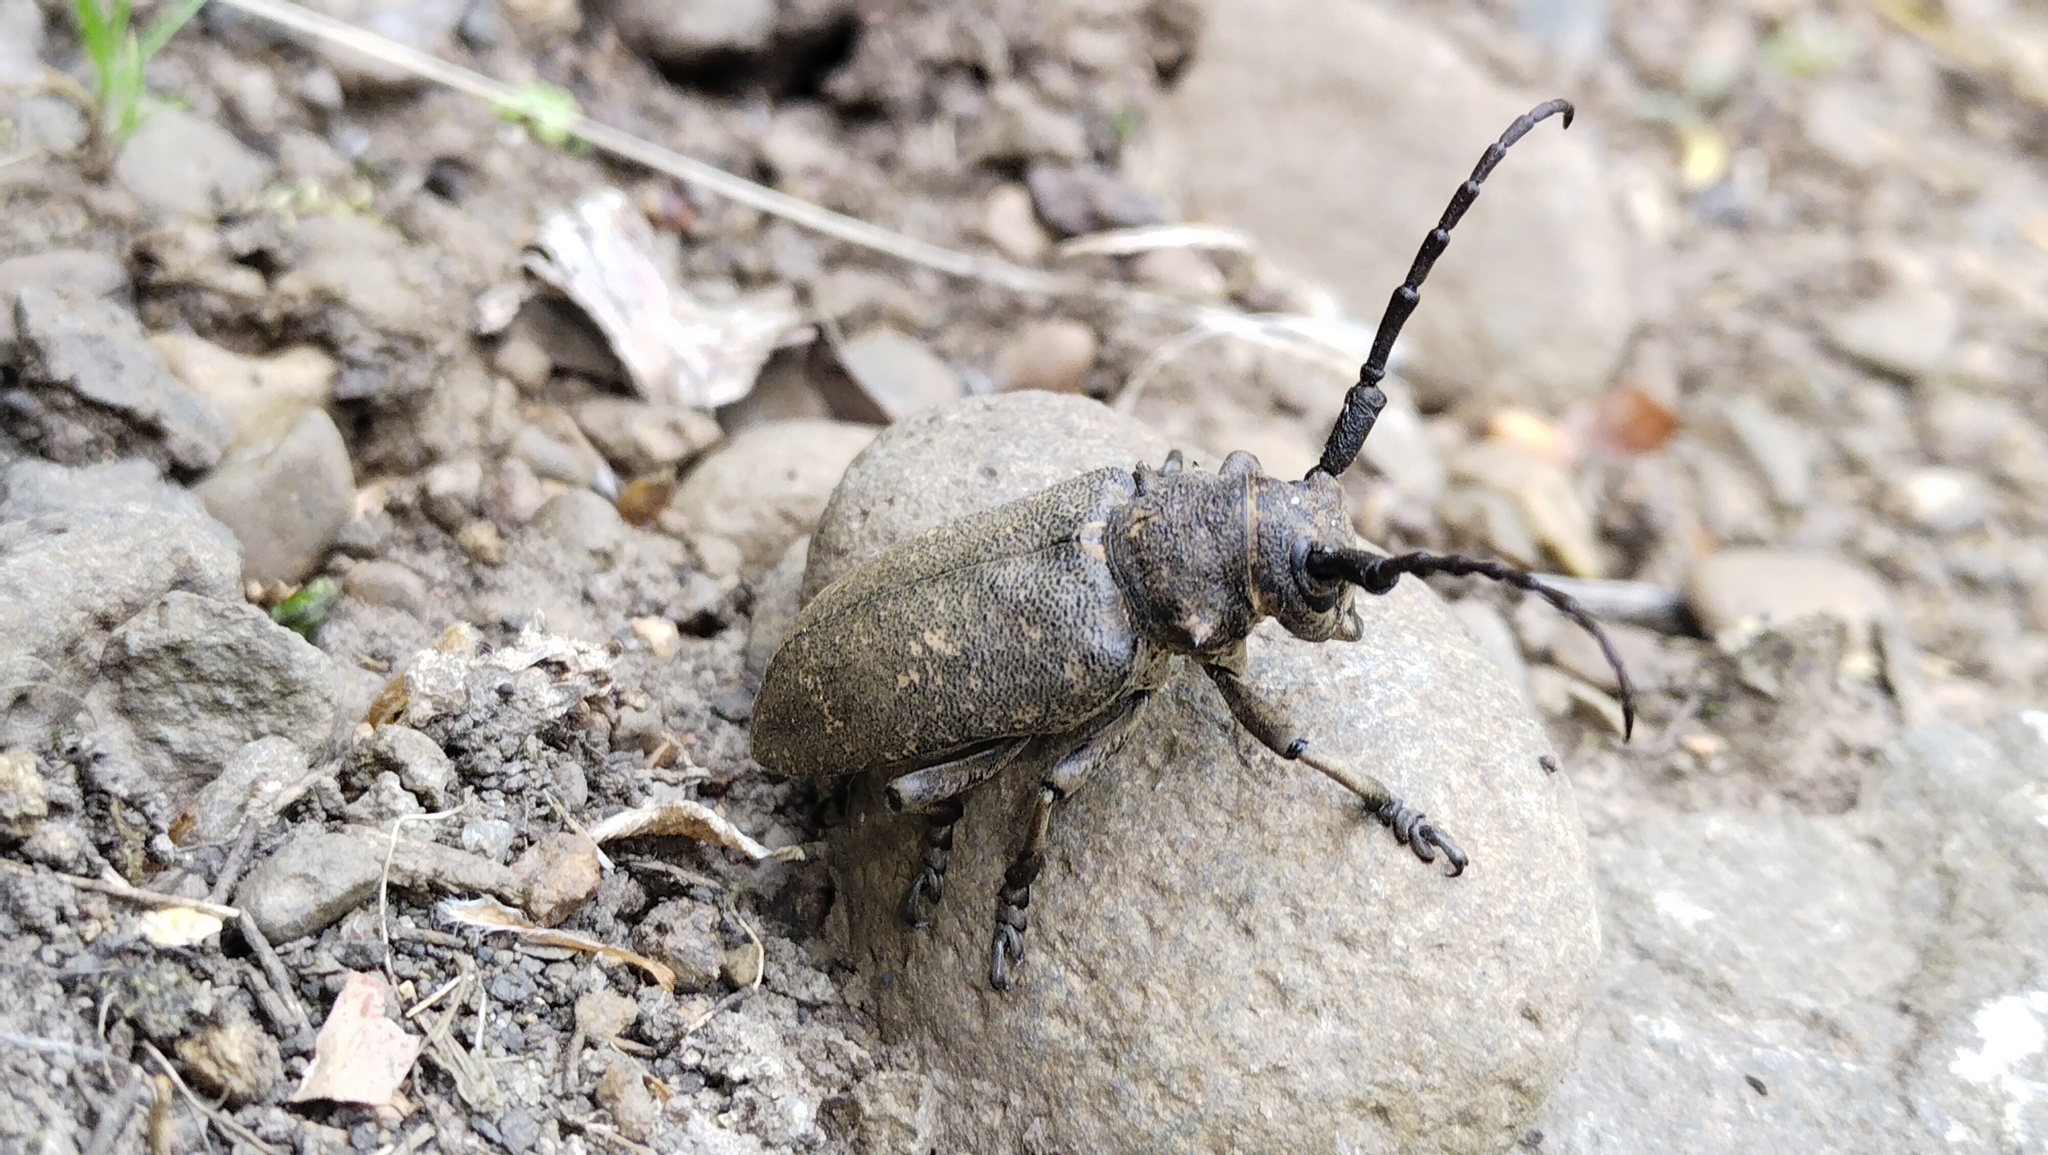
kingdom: Animalia
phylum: Arthropoda
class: Insecta
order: Coleoptera
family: Cerambycidae
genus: Lamia
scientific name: Lamia textor
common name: Weaver beetle
